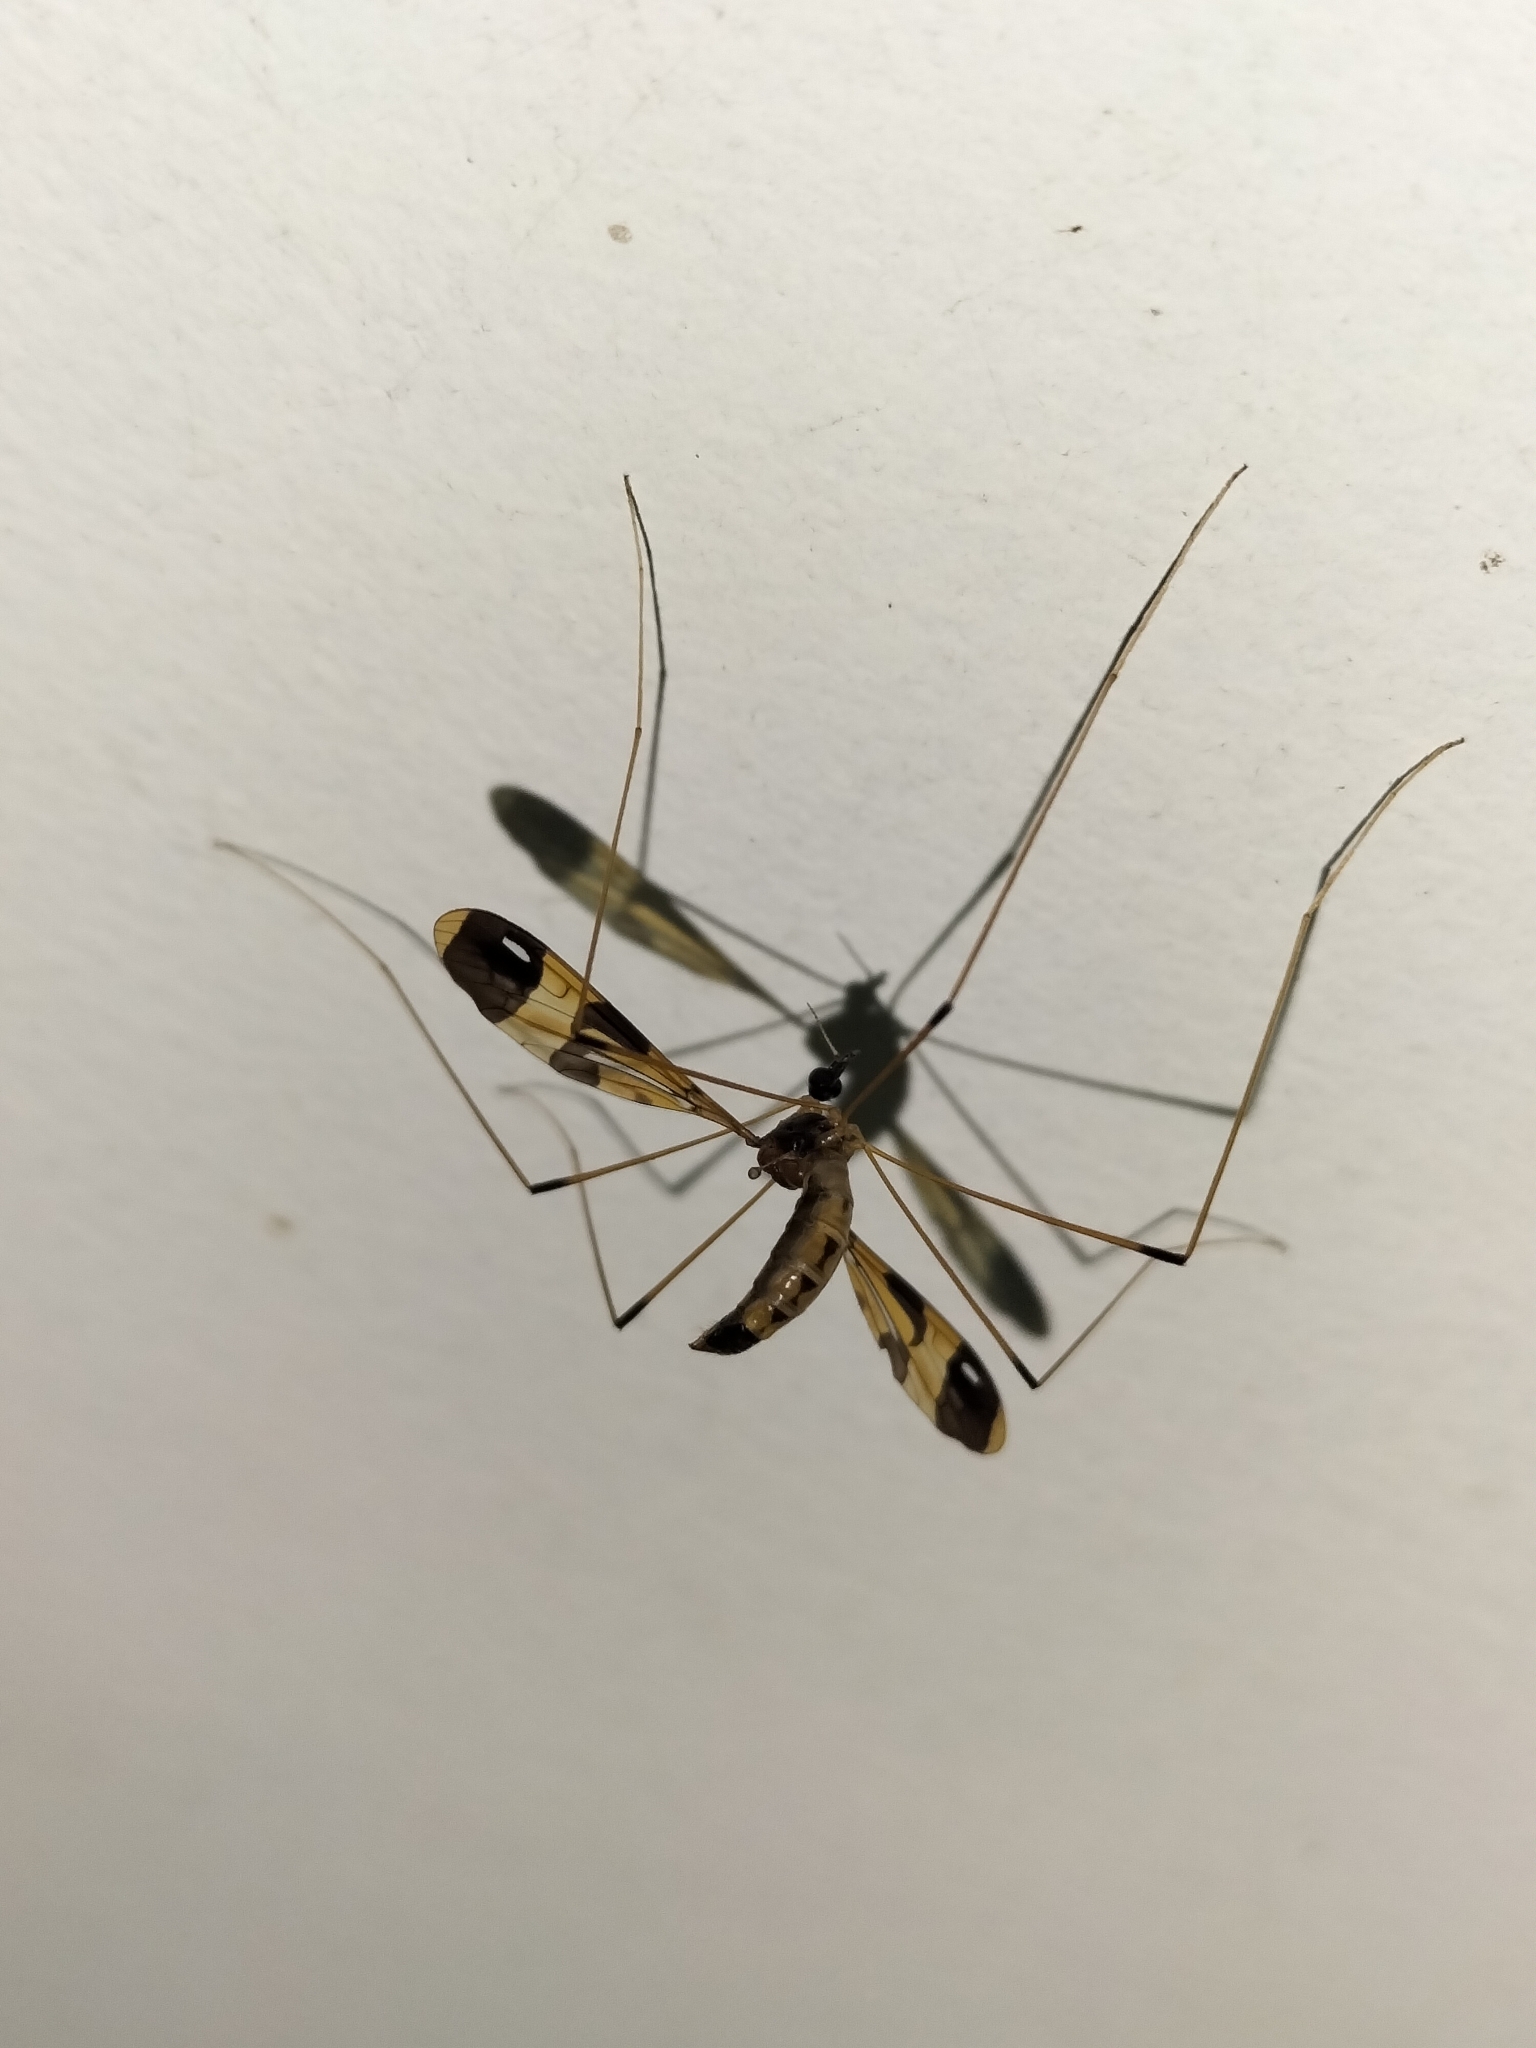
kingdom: Animalia
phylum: Arthropoda
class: Insecta
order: Diptera
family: Limoniidae
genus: Dapanoptera
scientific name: Dapanoptera richmondiana
